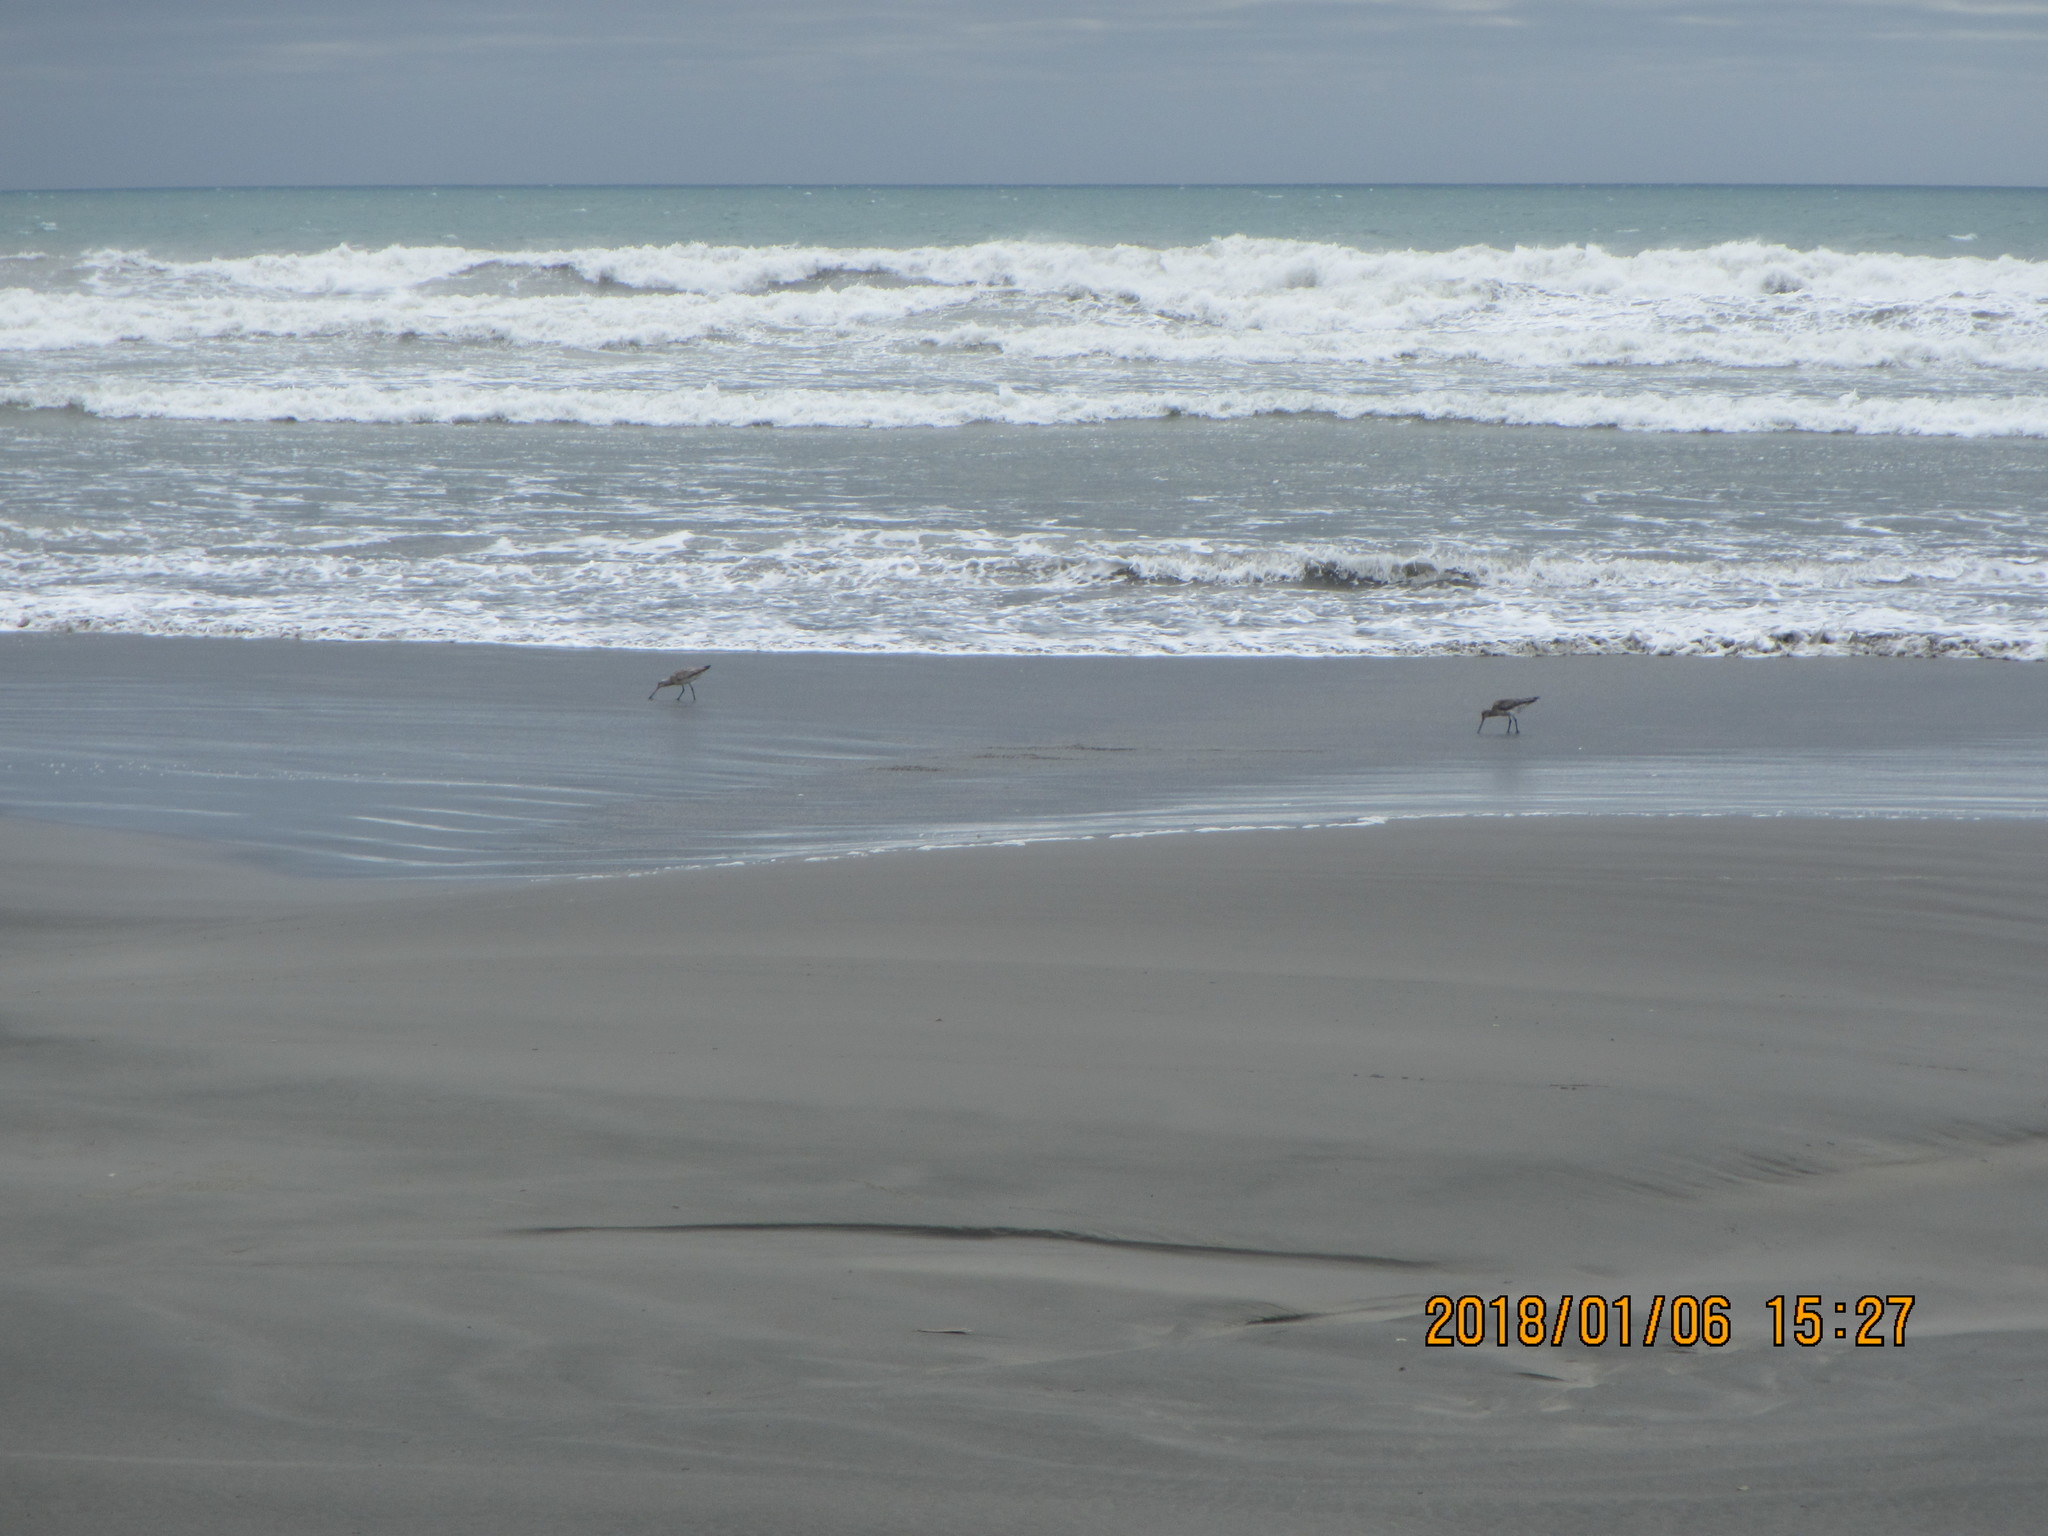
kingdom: Animalia
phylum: Chordata
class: Aves
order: Charadriiformes
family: Scolopacidae
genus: Limosa
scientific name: Limosa lapponica
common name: Bar-tailed godwit
